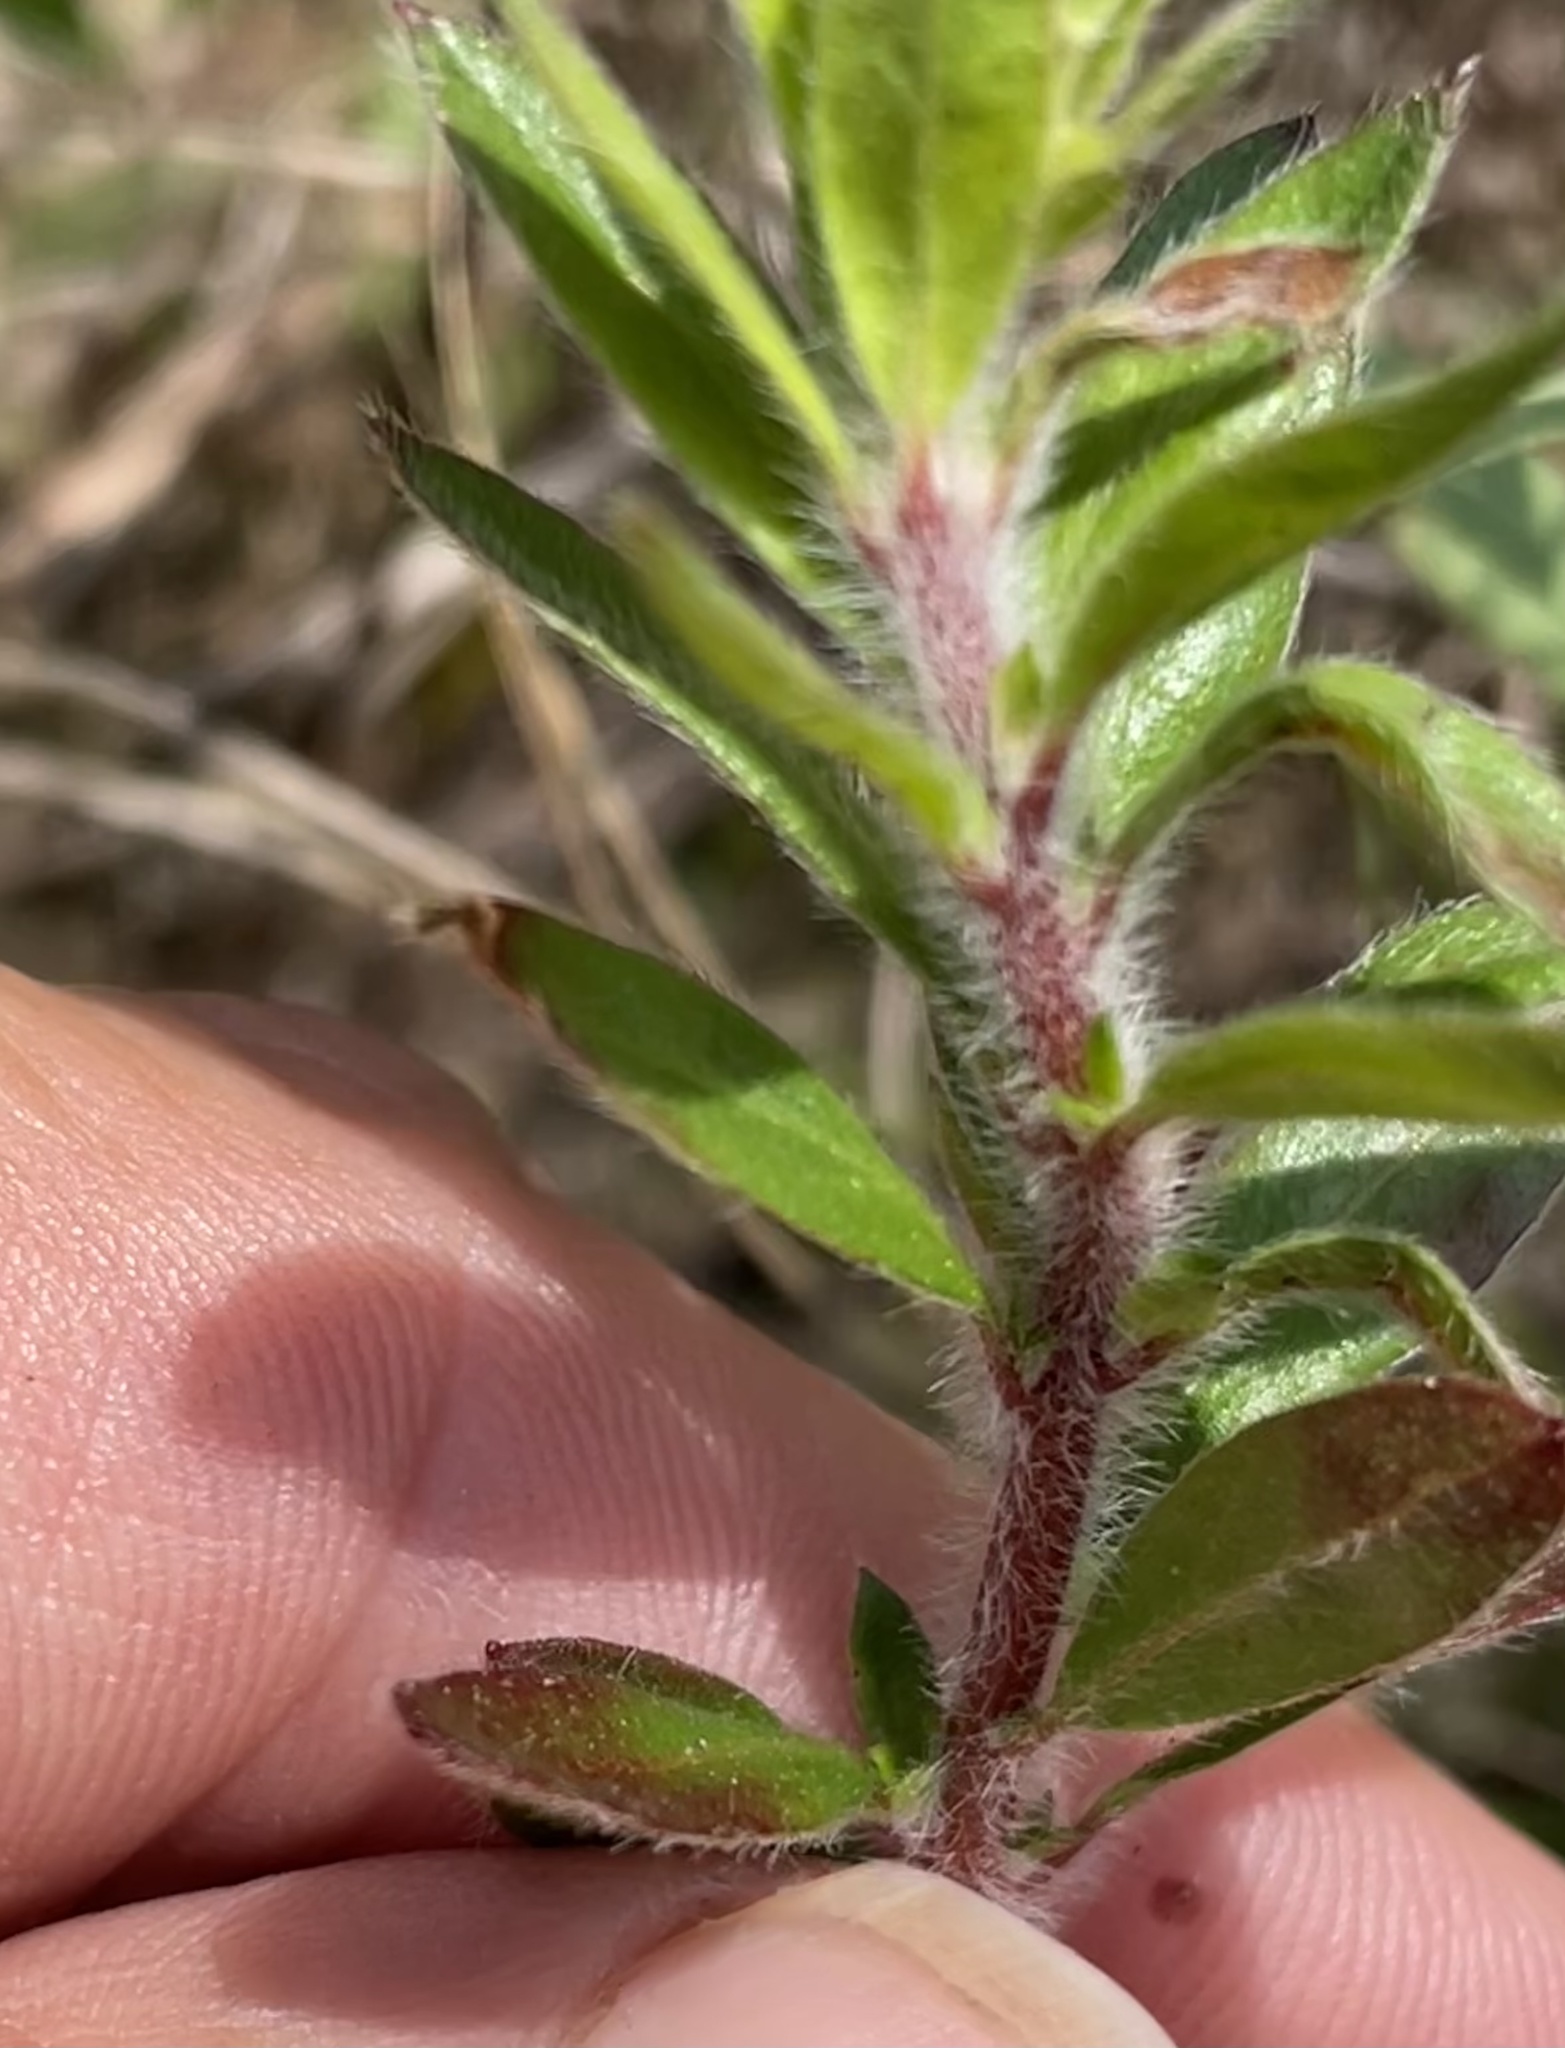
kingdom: Plantae
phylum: Tracheophyta
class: Magnoliopsida
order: Malvales
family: Cistaceae
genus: Lechea
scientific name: Lechea mucronata
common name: Hairy pinweed
